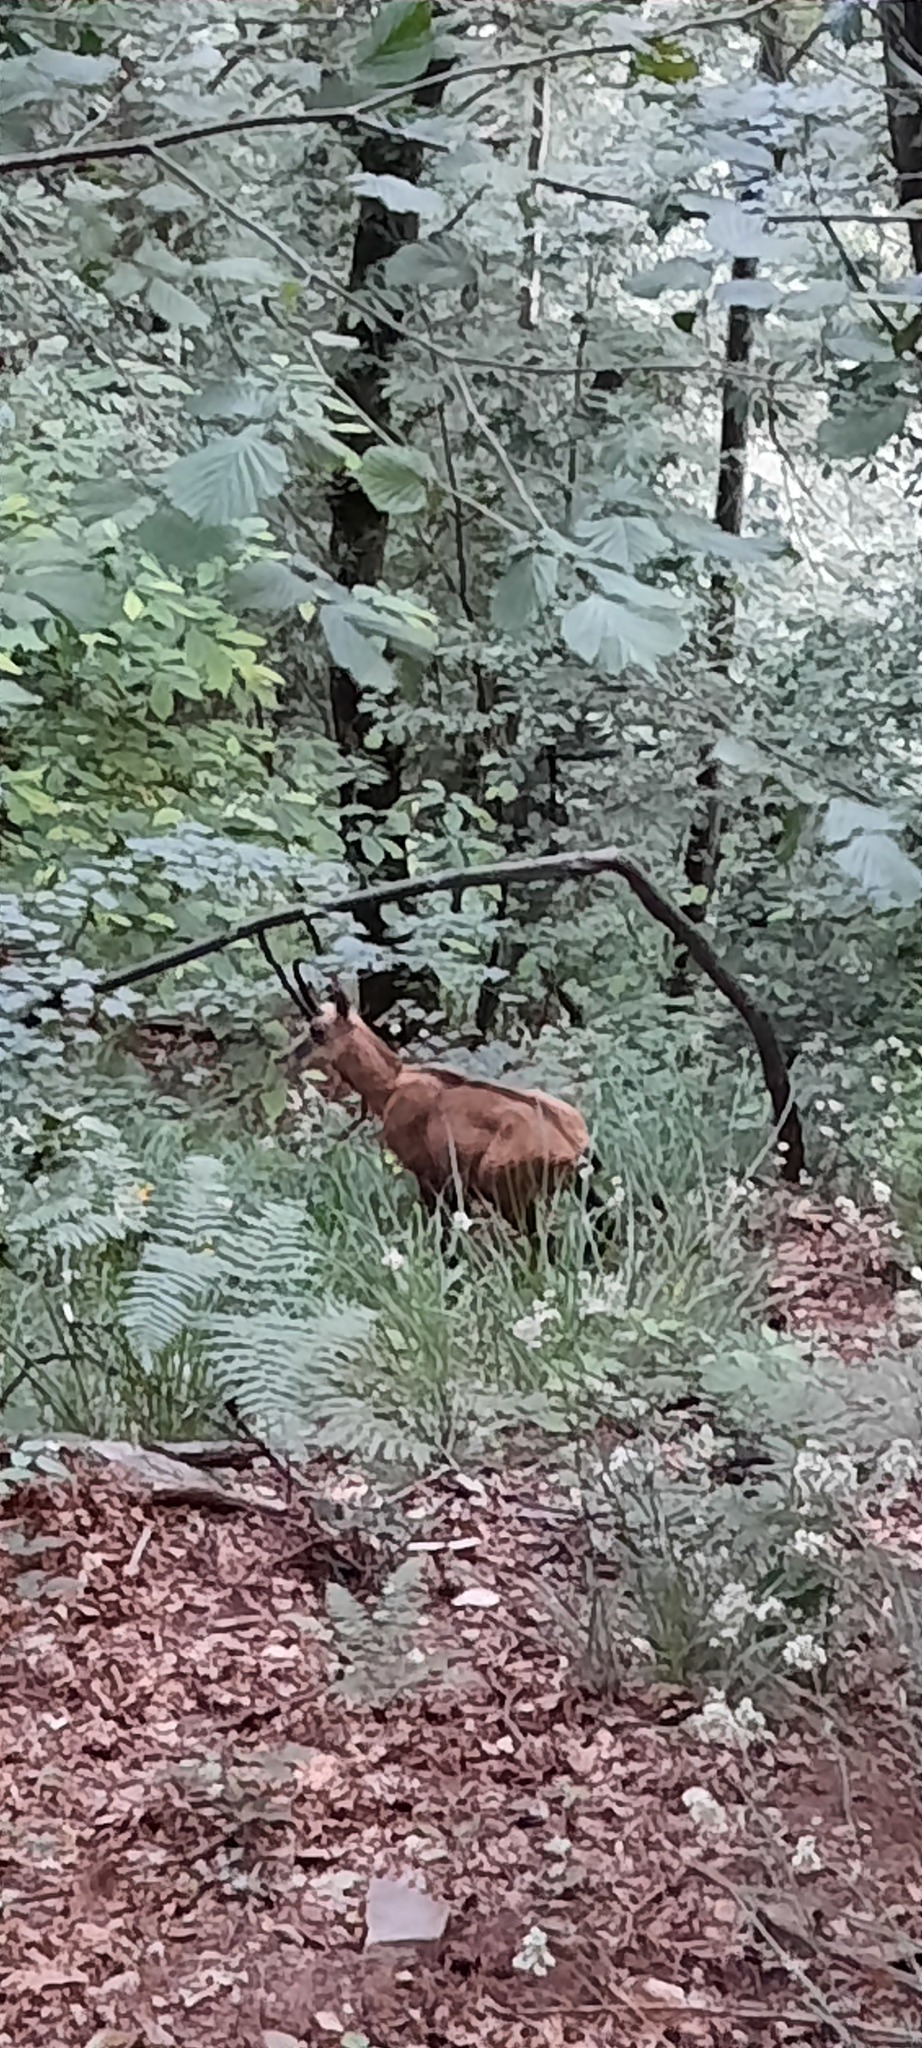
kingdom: Animalia
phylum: Chordata
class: Mammalia
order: Artiodactyla
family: Bovidae
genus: Rupicapra
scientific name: Rupicapra rupicapra
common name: Chamois
